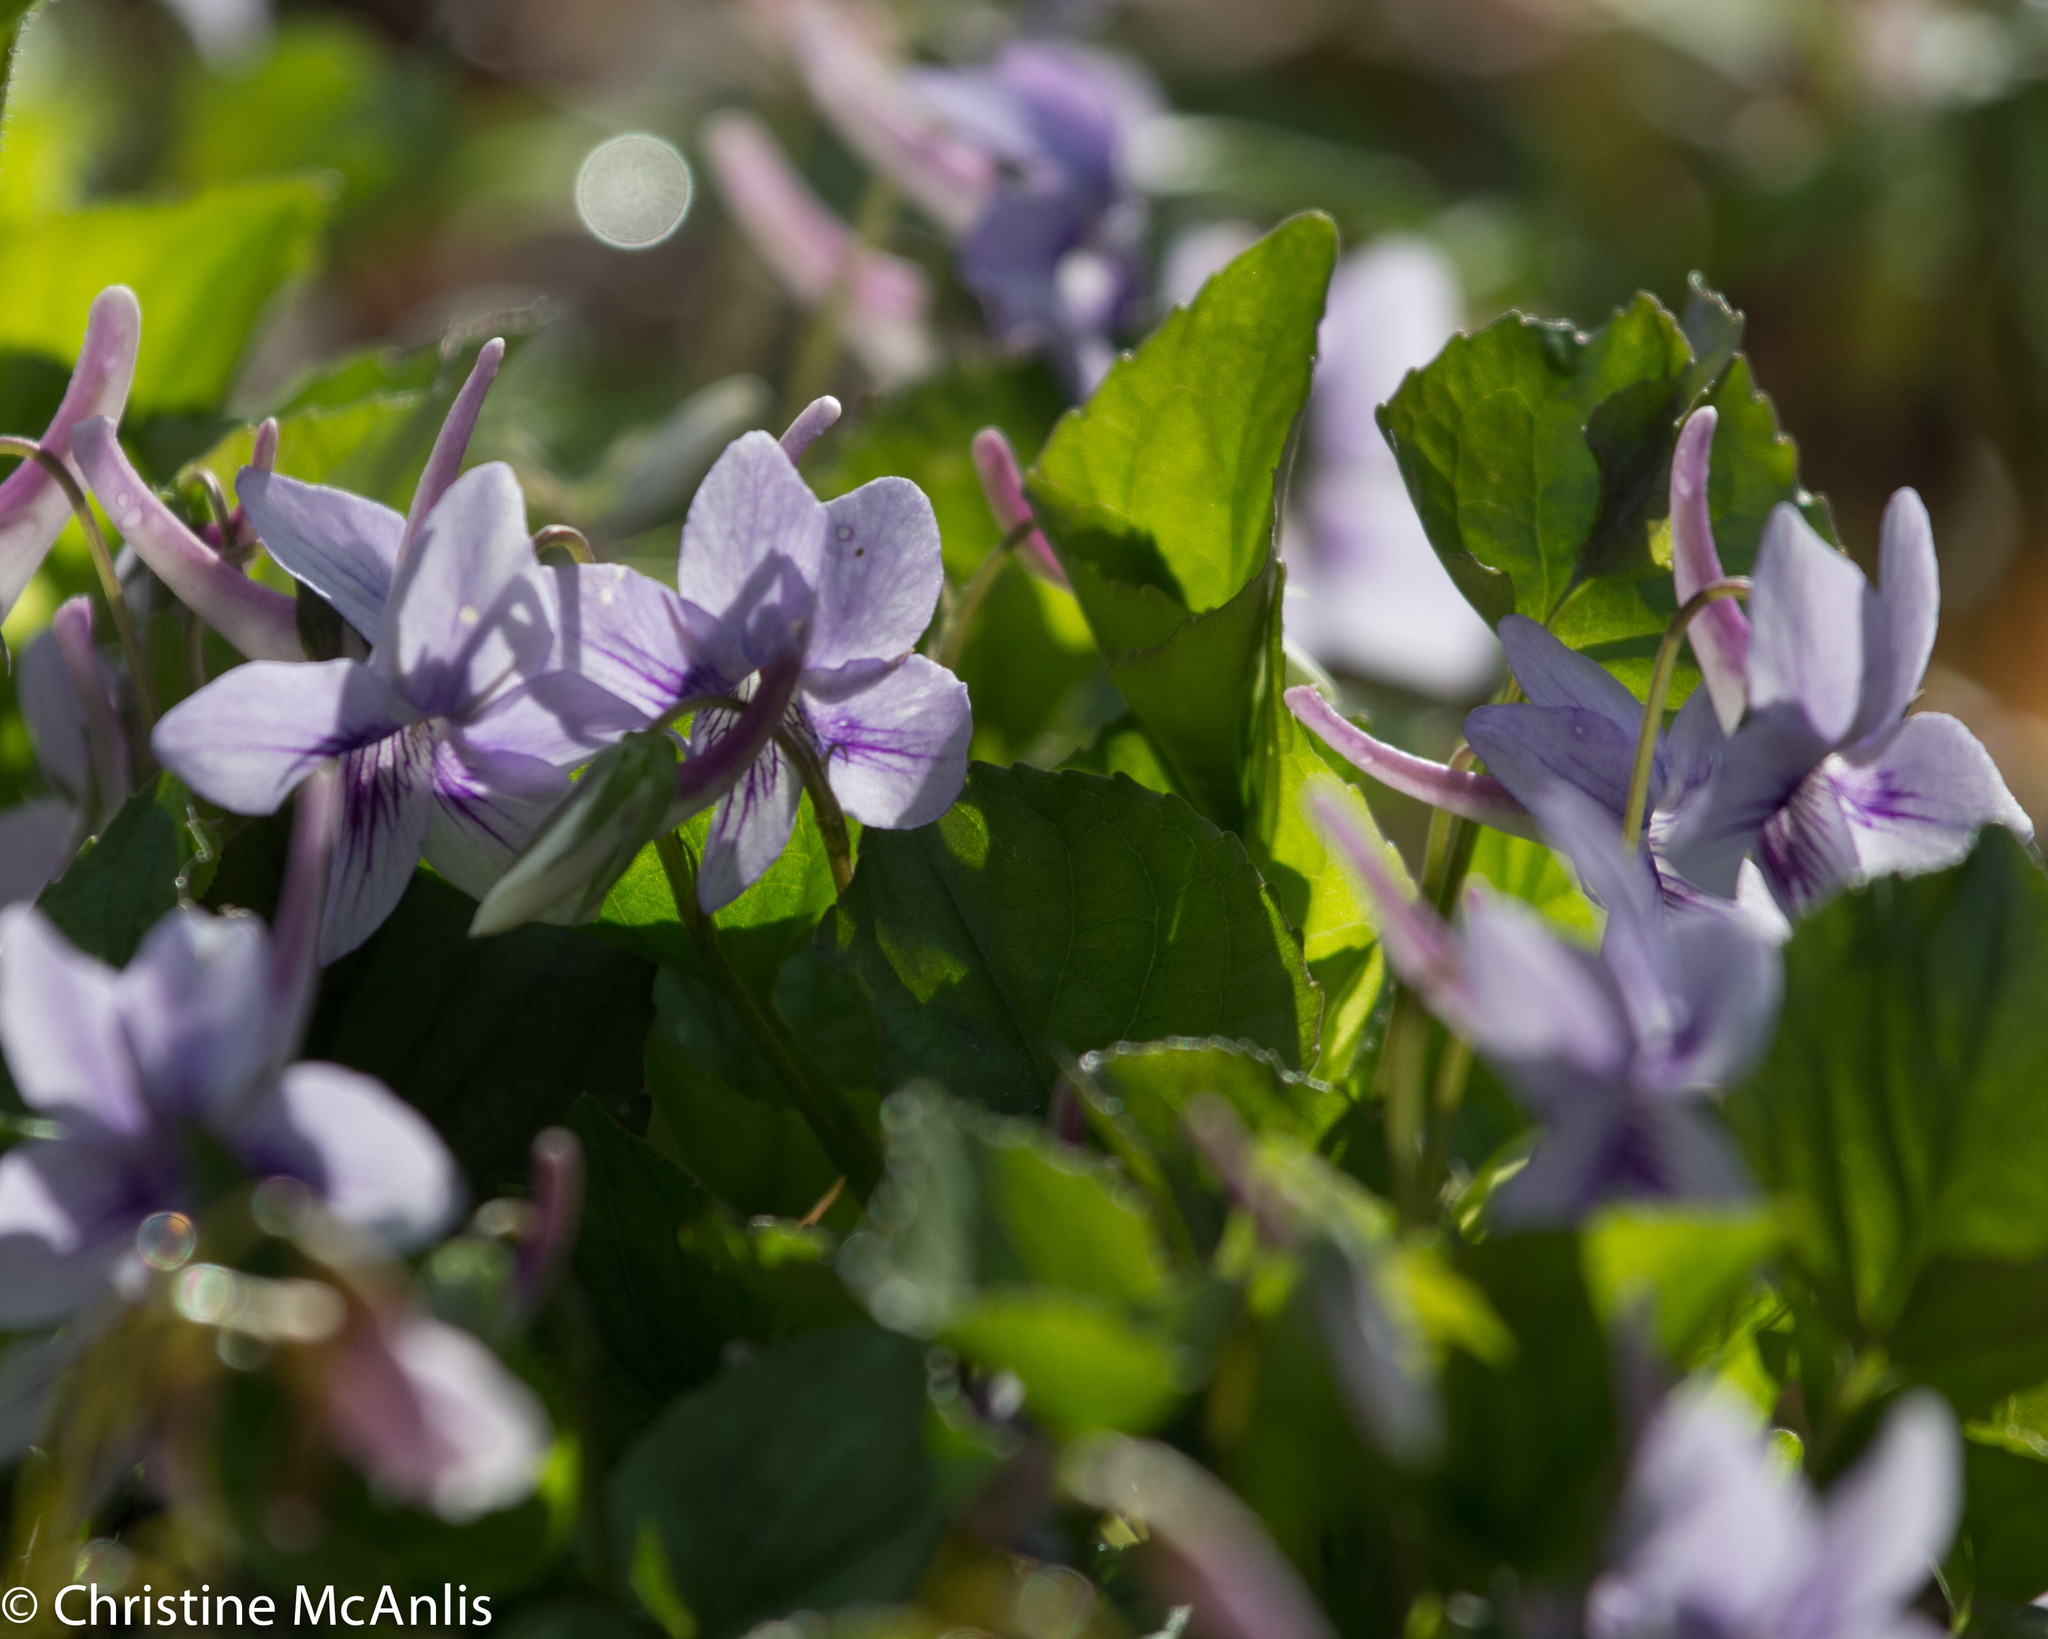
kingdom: Plantae
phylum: Tracheophyta
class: Magnoliopsida
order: Malpighiales
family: Violaceae
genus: Viola
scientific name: Viola rostrata
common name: Long-spur violet
